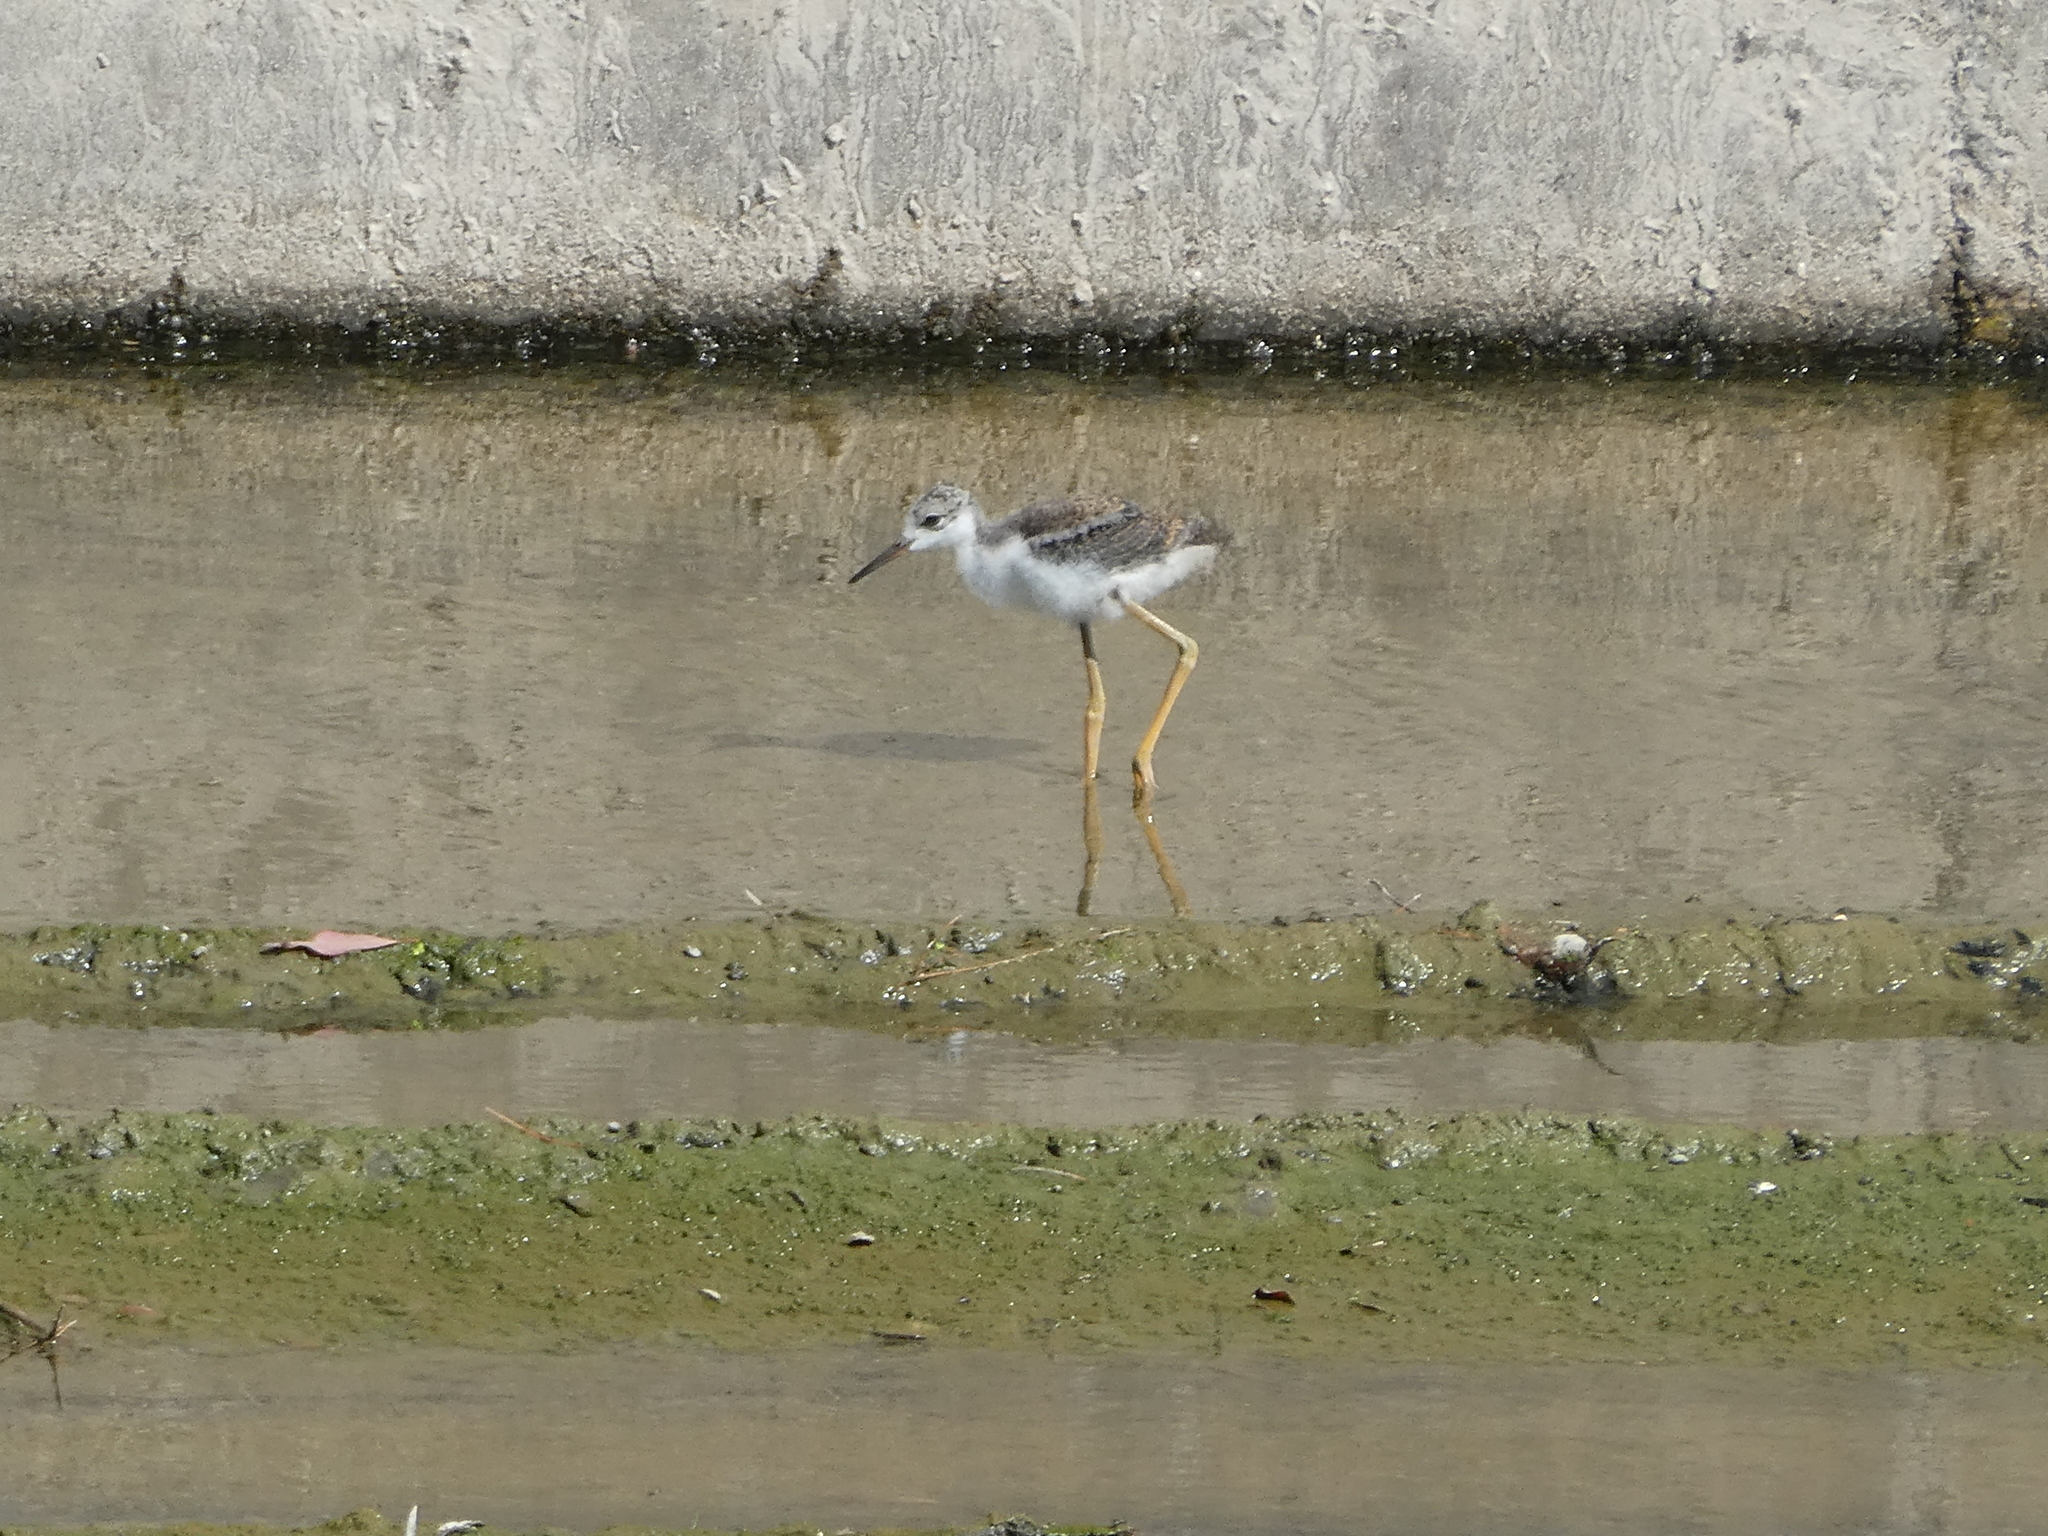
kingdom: Animalia
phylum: Chordata
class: Aves
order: Charadriiformes
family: Recurvirostridae
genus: Himantopus
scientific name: Himantopus mexicanus
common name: Black-necked stilt
